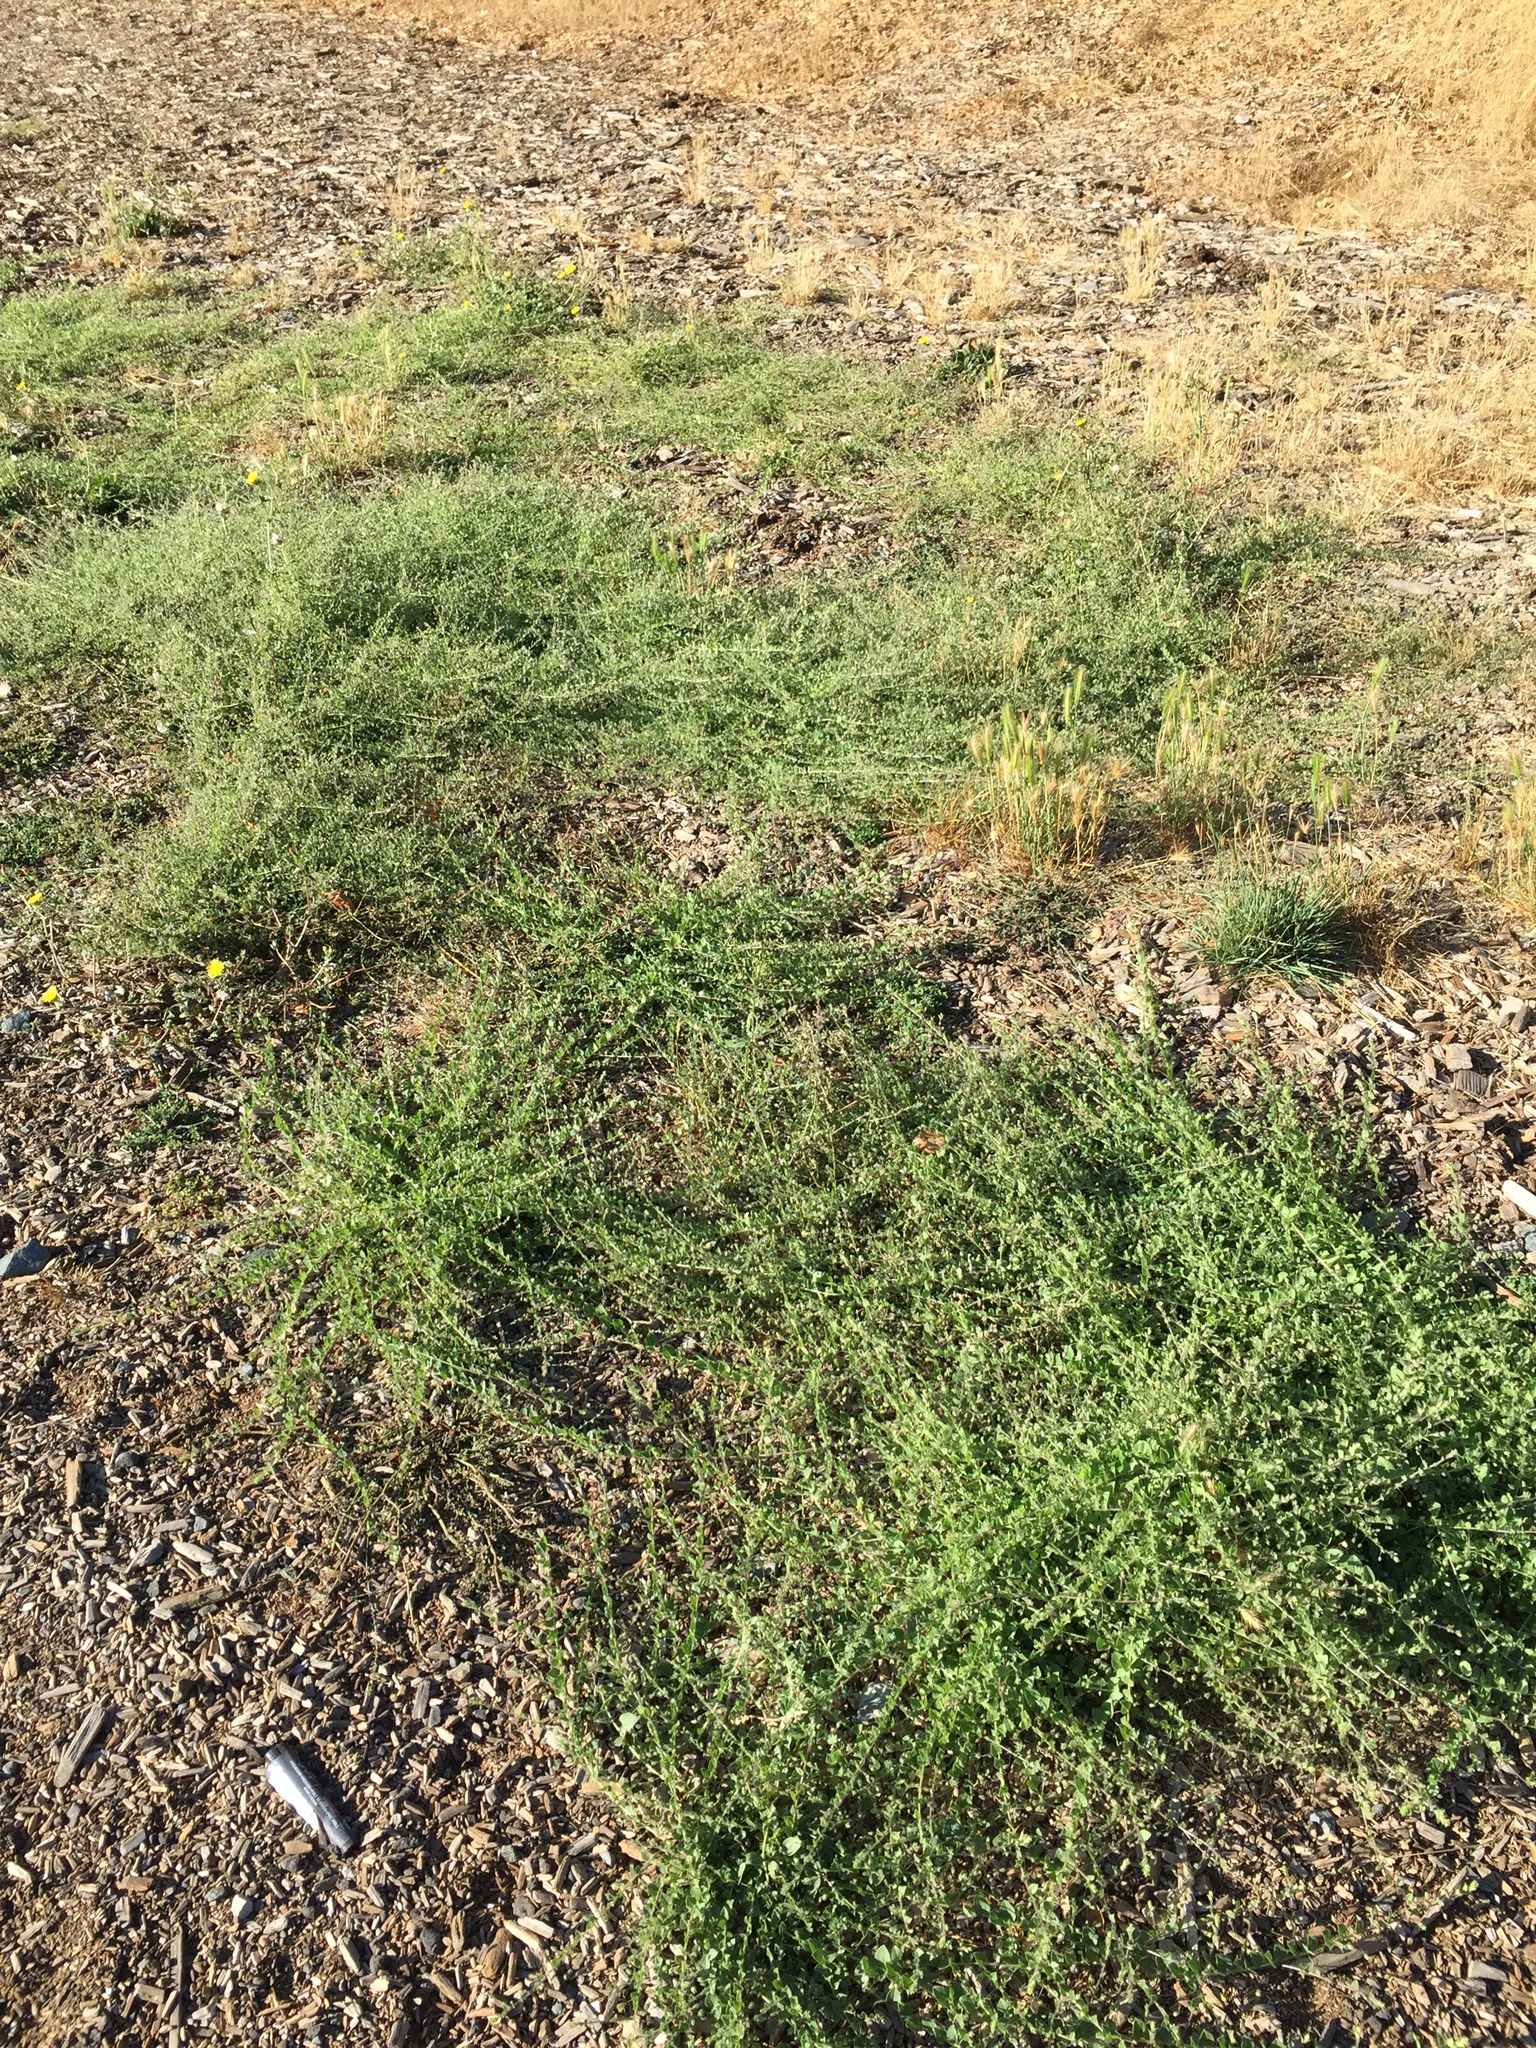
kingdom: Plantae
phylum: Tracheophyta
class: Magnoliopsida
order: Lamiales
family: Plantaginaceae
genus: Kickxia
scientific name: Kickxia elatine
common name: Sharp-leaved fluellen
